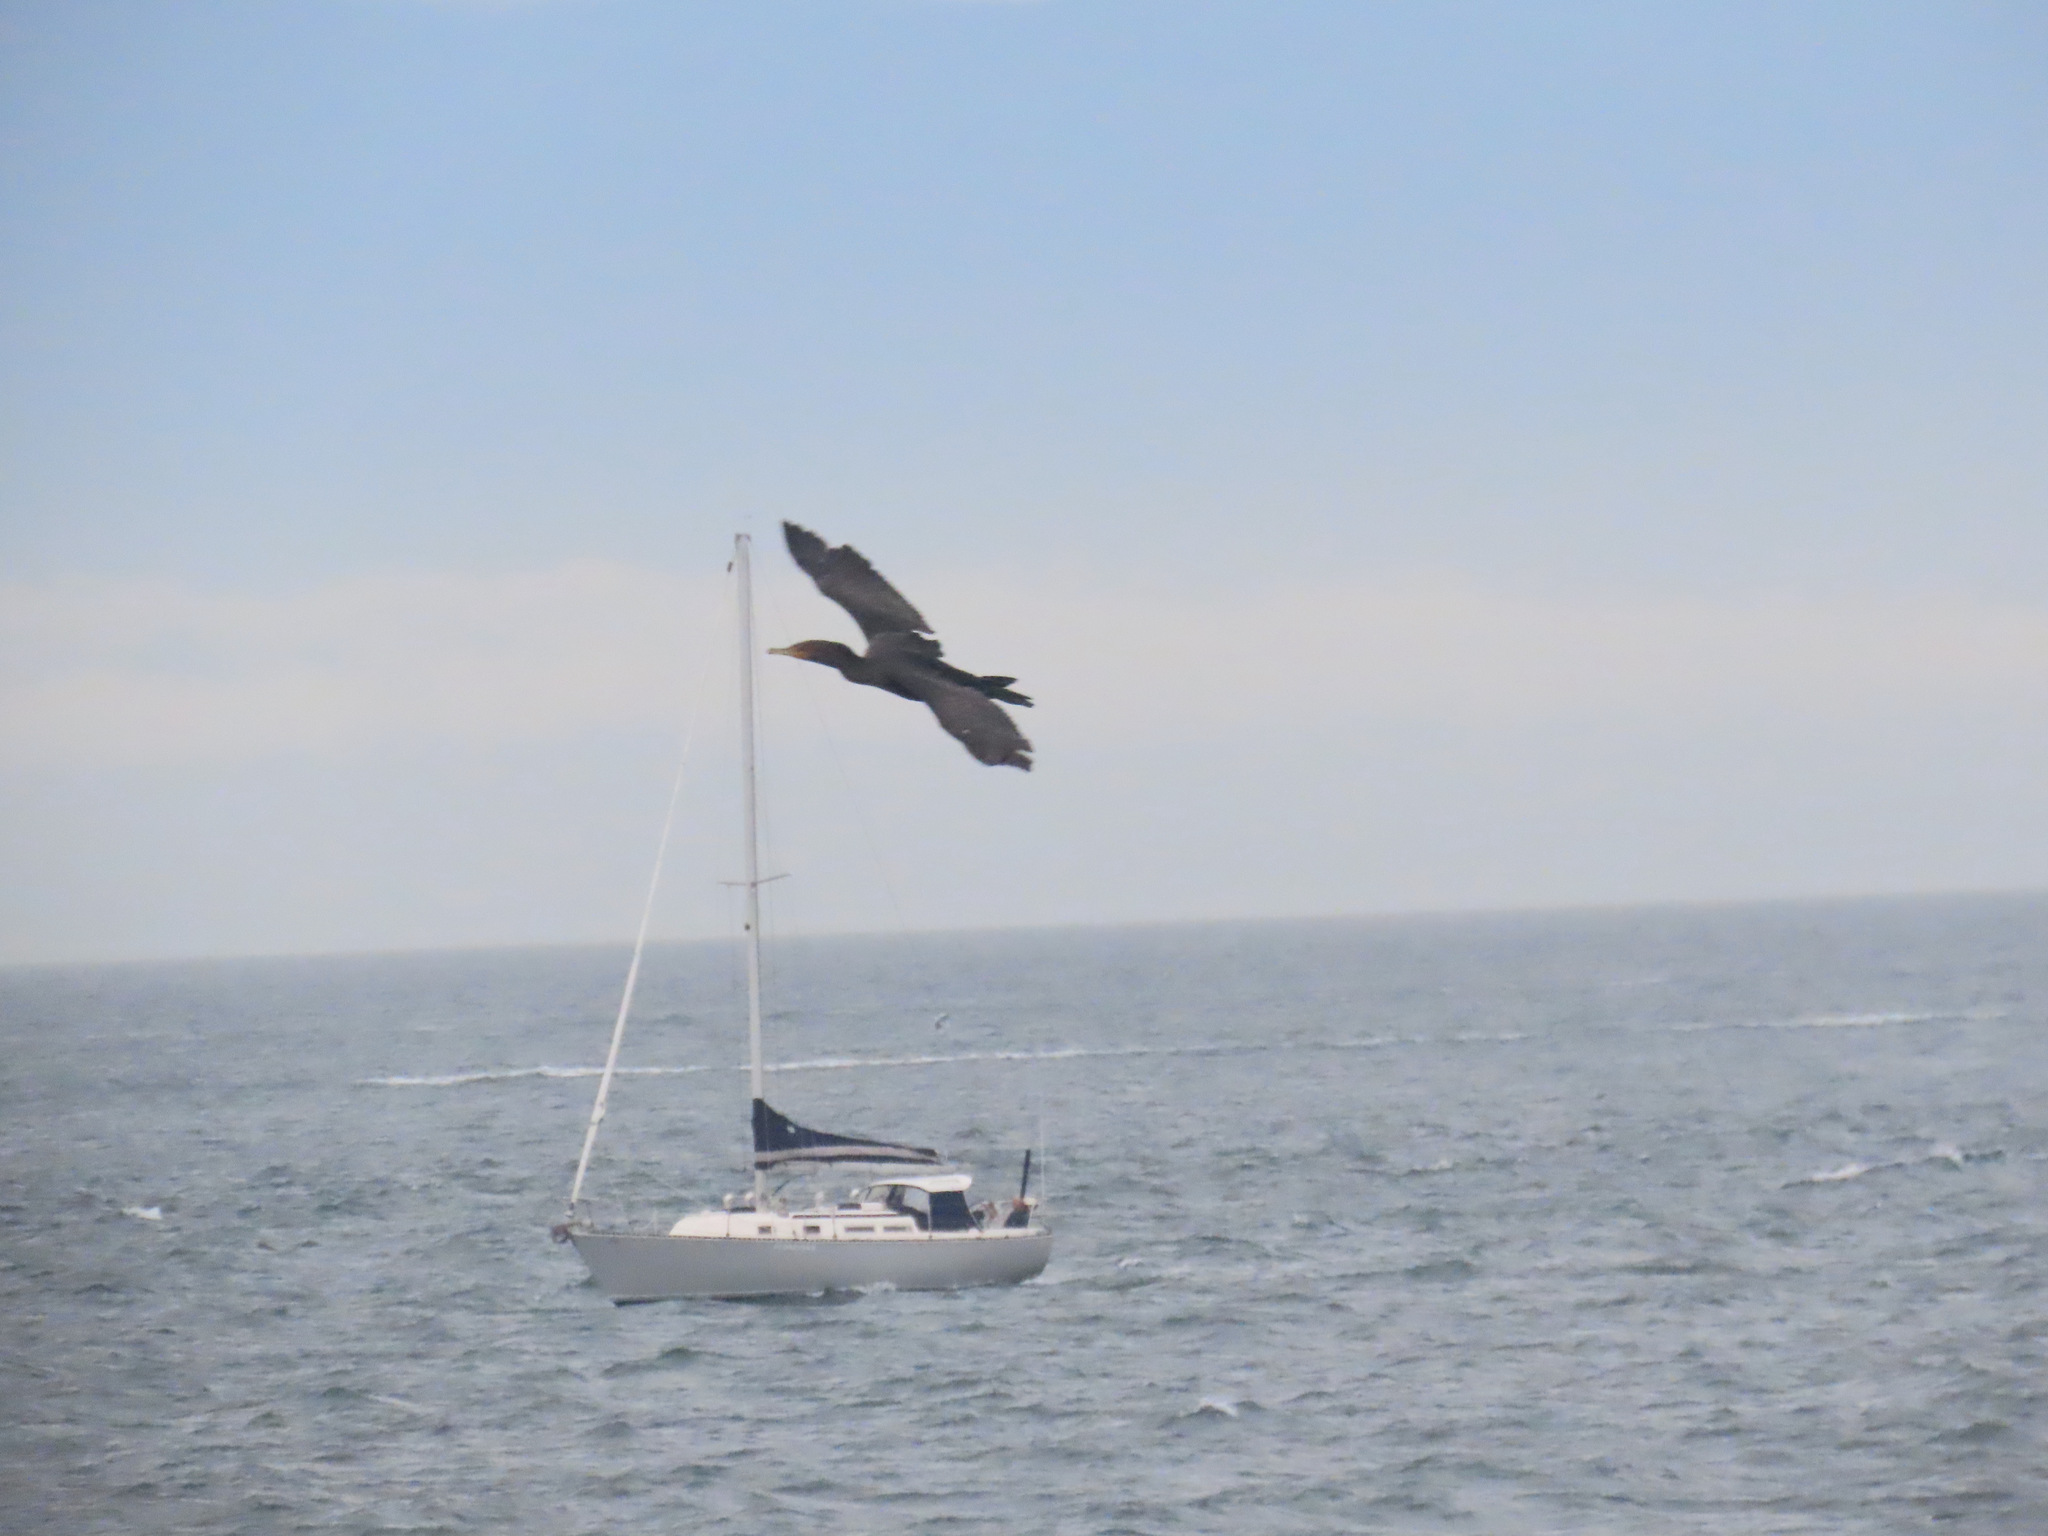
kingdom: Animalia
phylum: Chordata
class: Aves
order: Suliformes
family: Phalacrocoracidae
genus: Phalacrocorax
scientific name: Phalacrocorax auritus
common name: Double-crested cormorant
